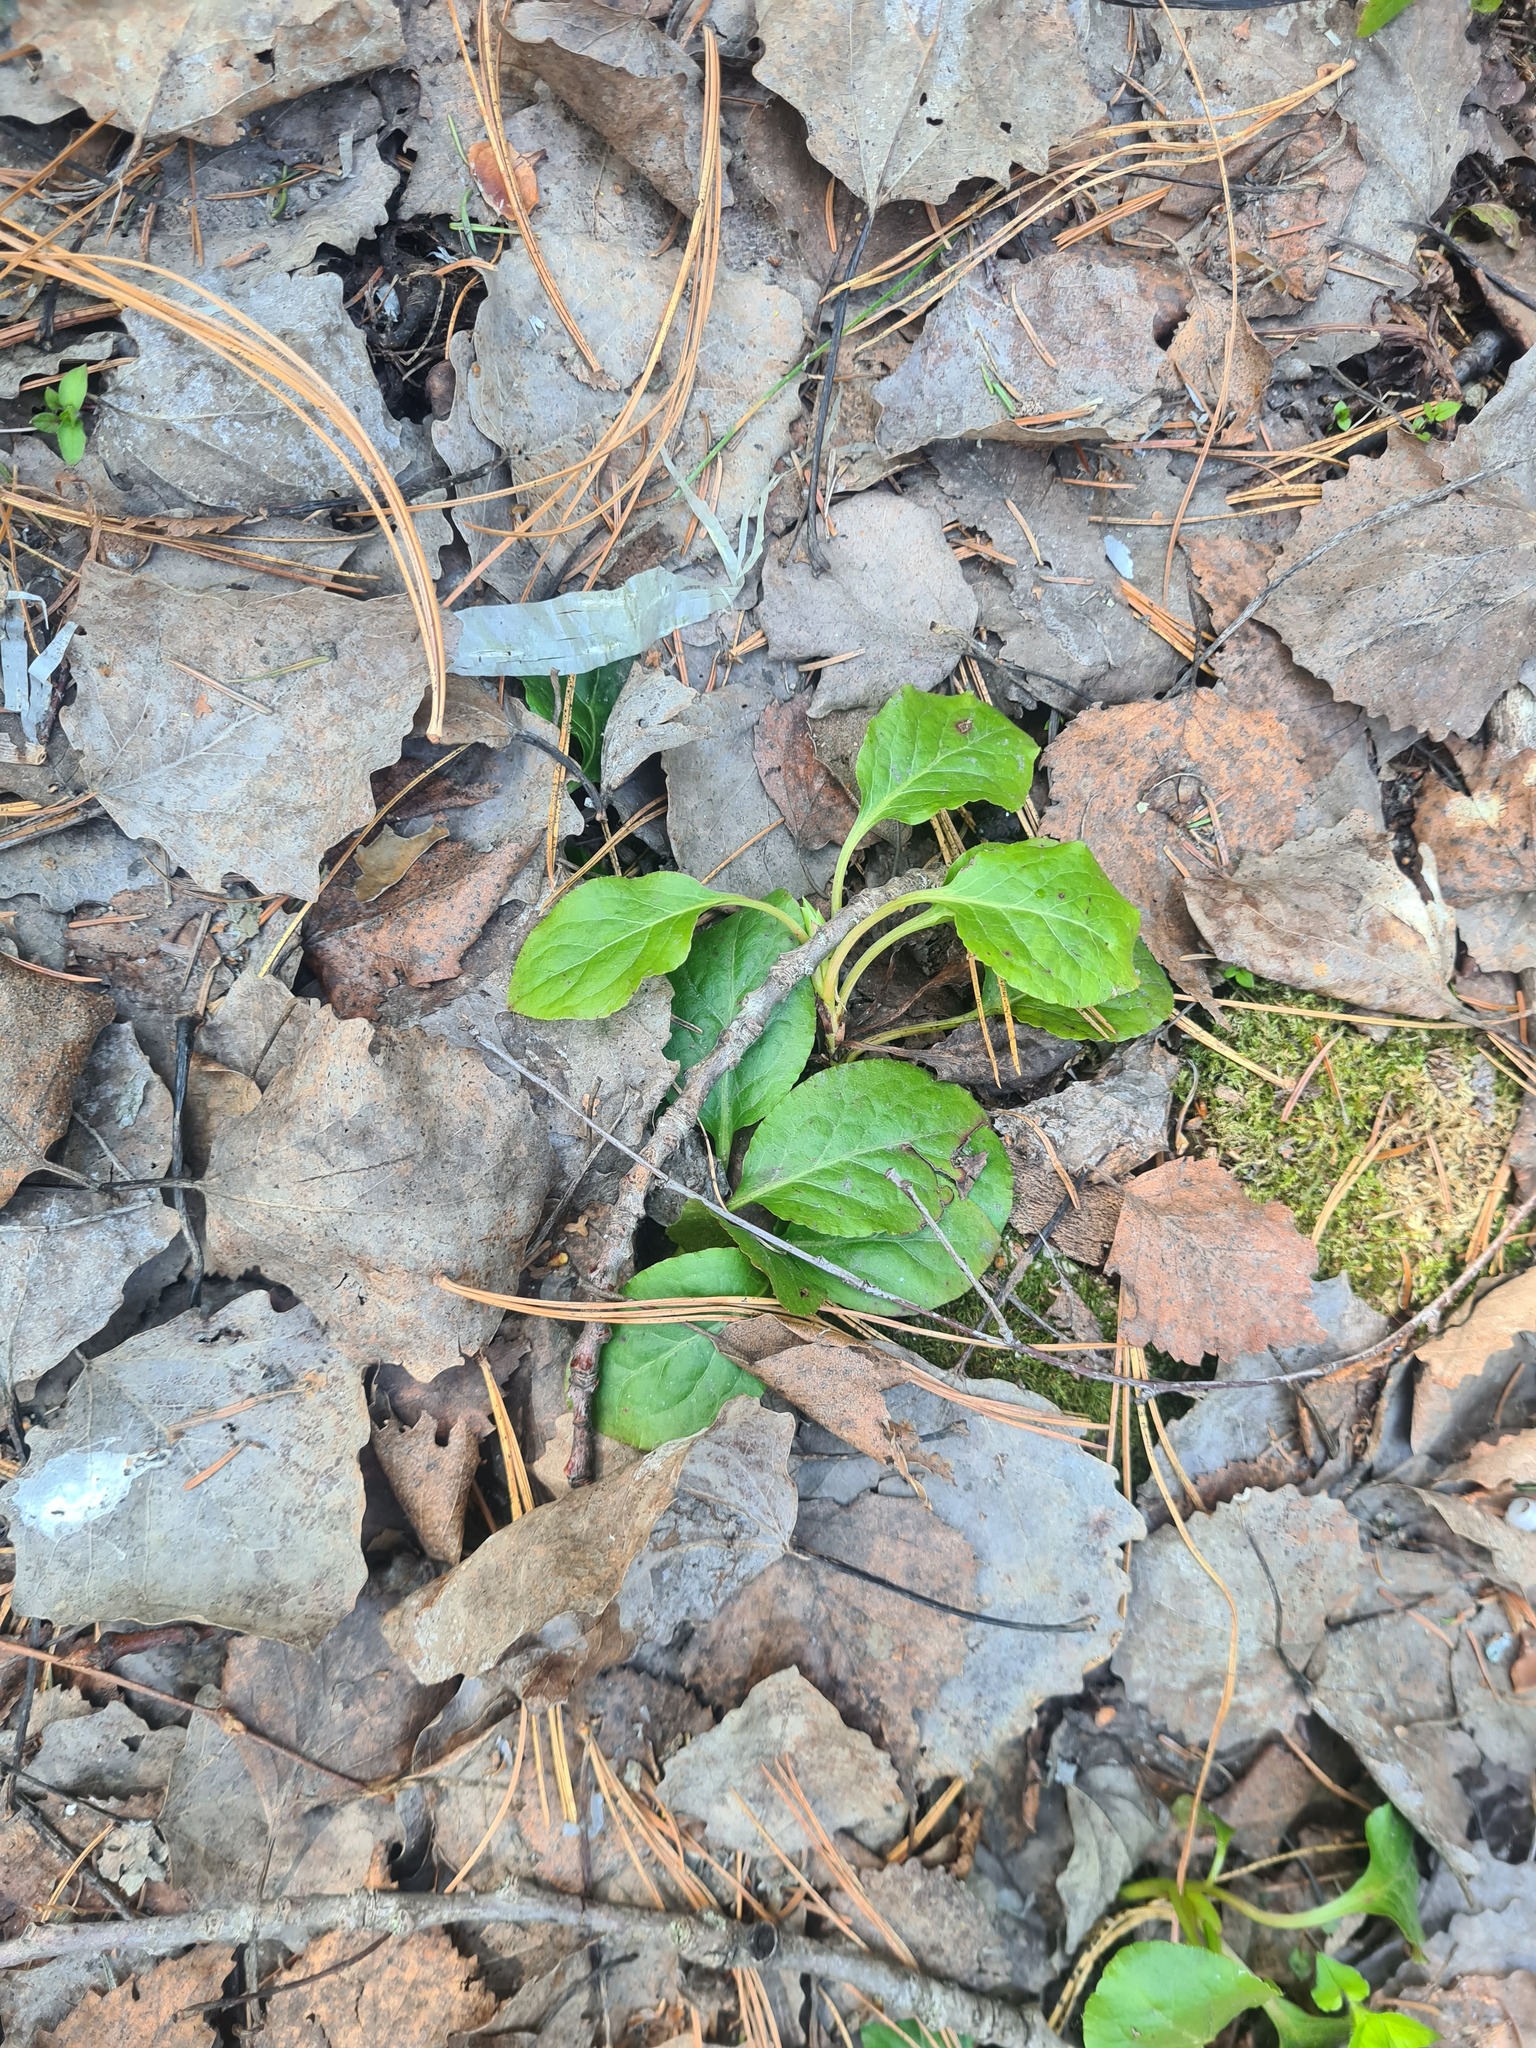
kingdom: Plantae
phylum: Tracheophyta
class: Magnoliopsida
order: Ericales
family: Ericaceae
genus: Orthilia
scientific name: Orthilia secunda
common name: One-sided orthilia
